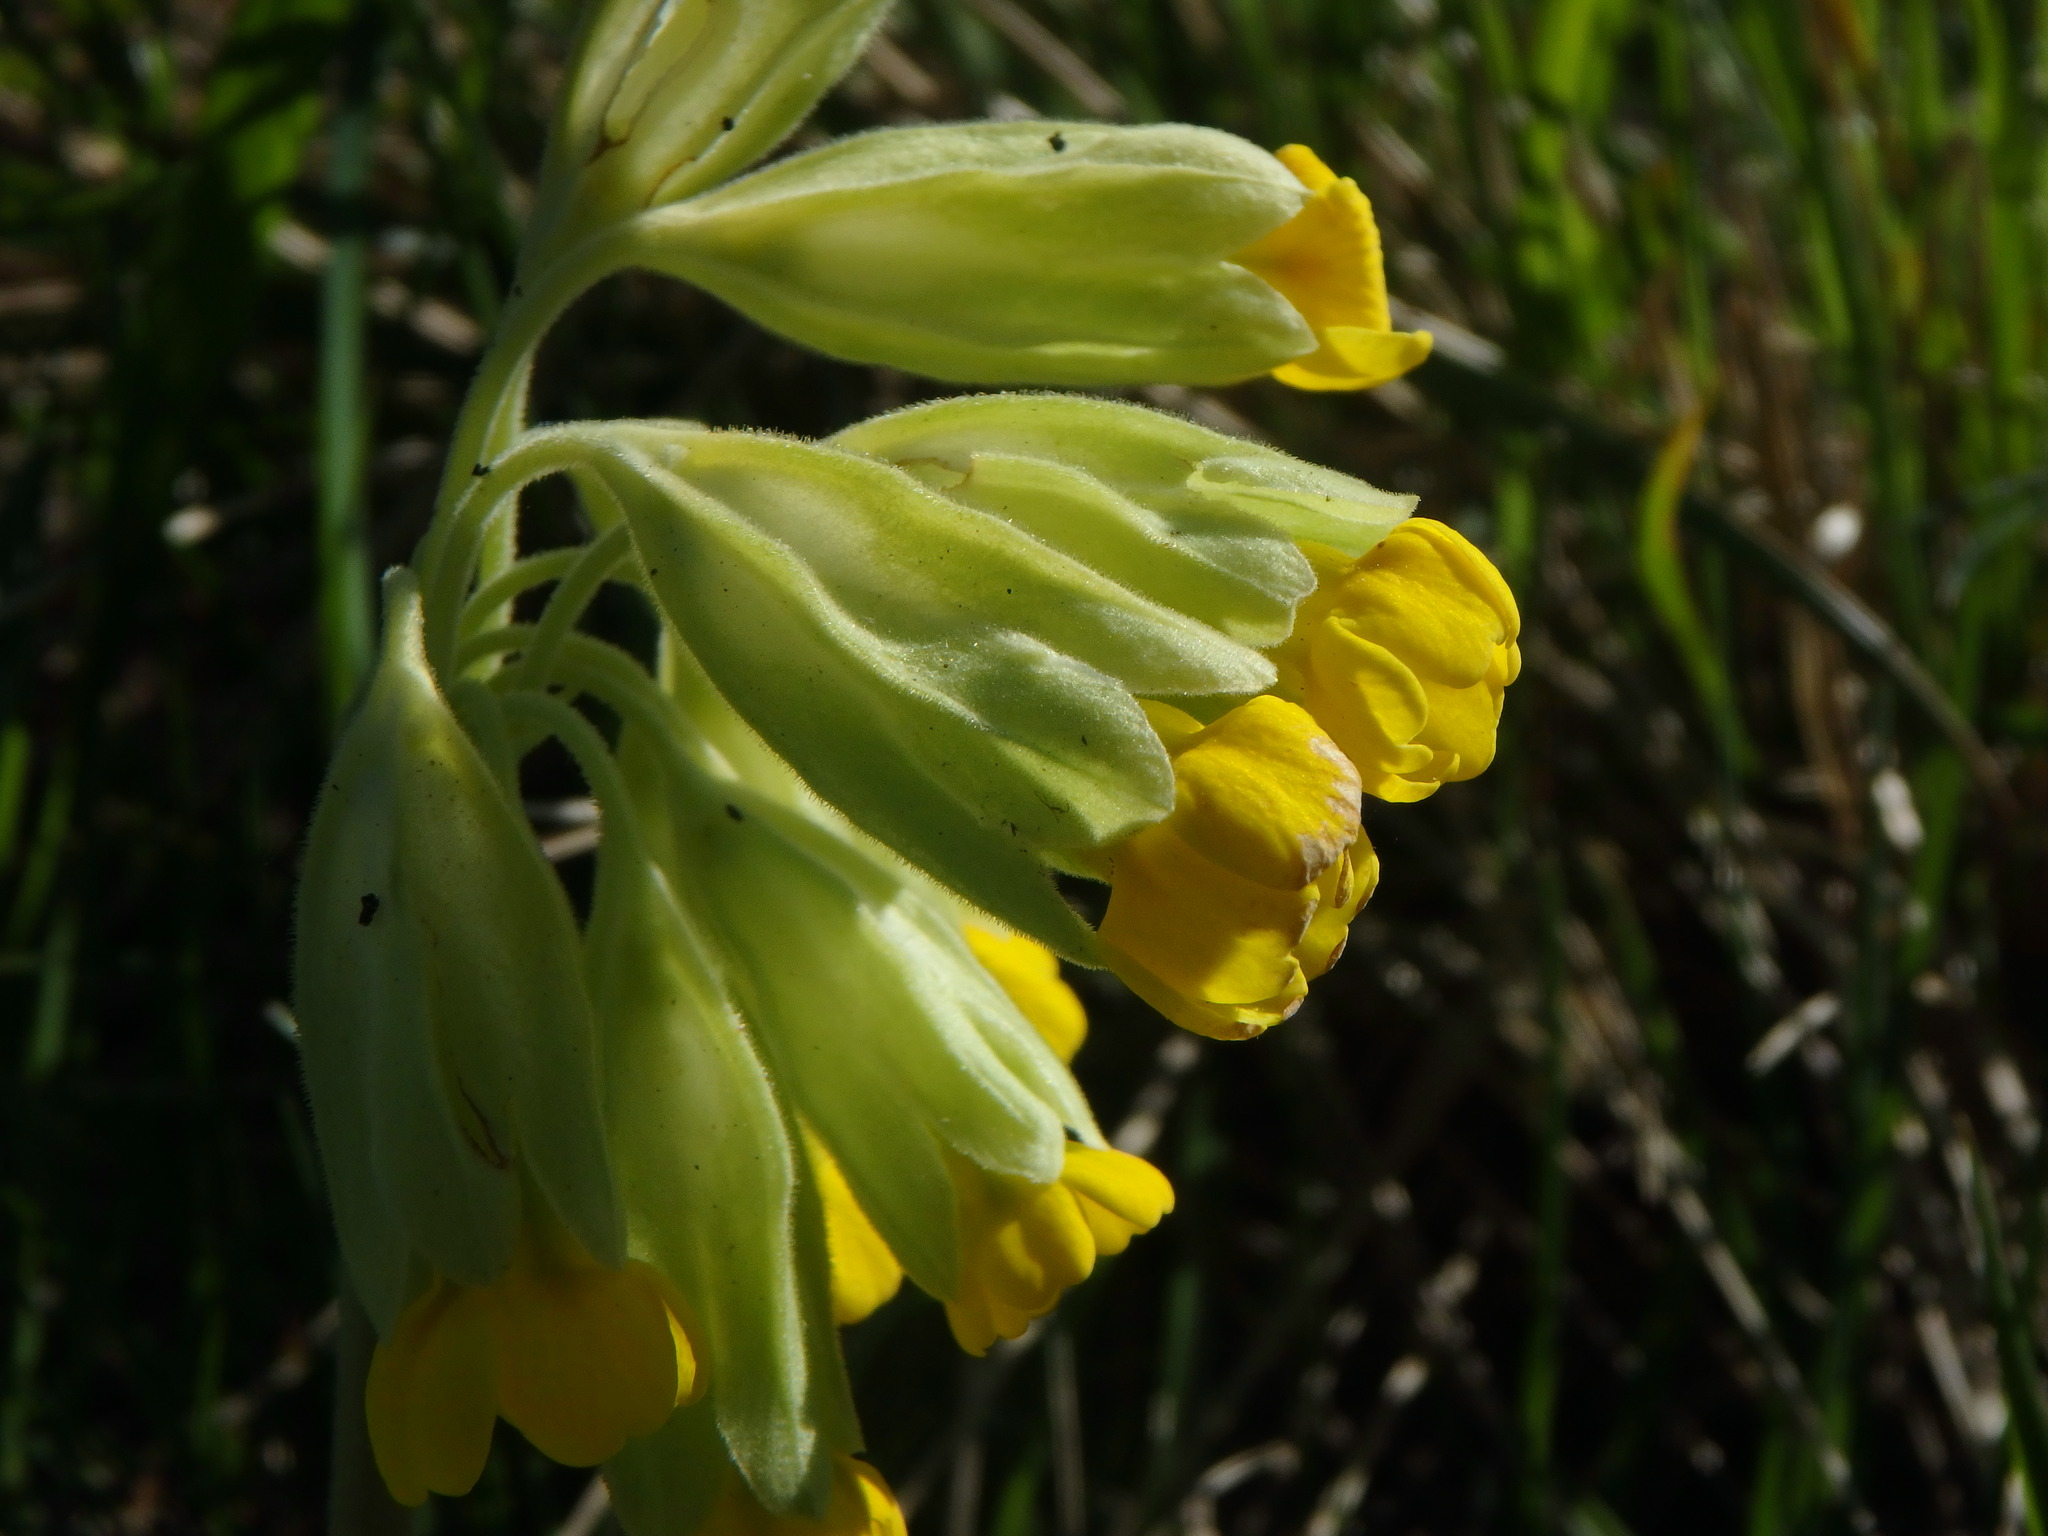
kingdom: Plantae
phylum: Tracheophyta
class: Magnoliopsida
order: Ericales
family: Primulaceae
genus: Primula
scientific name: Primula veris
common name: Cowslip
